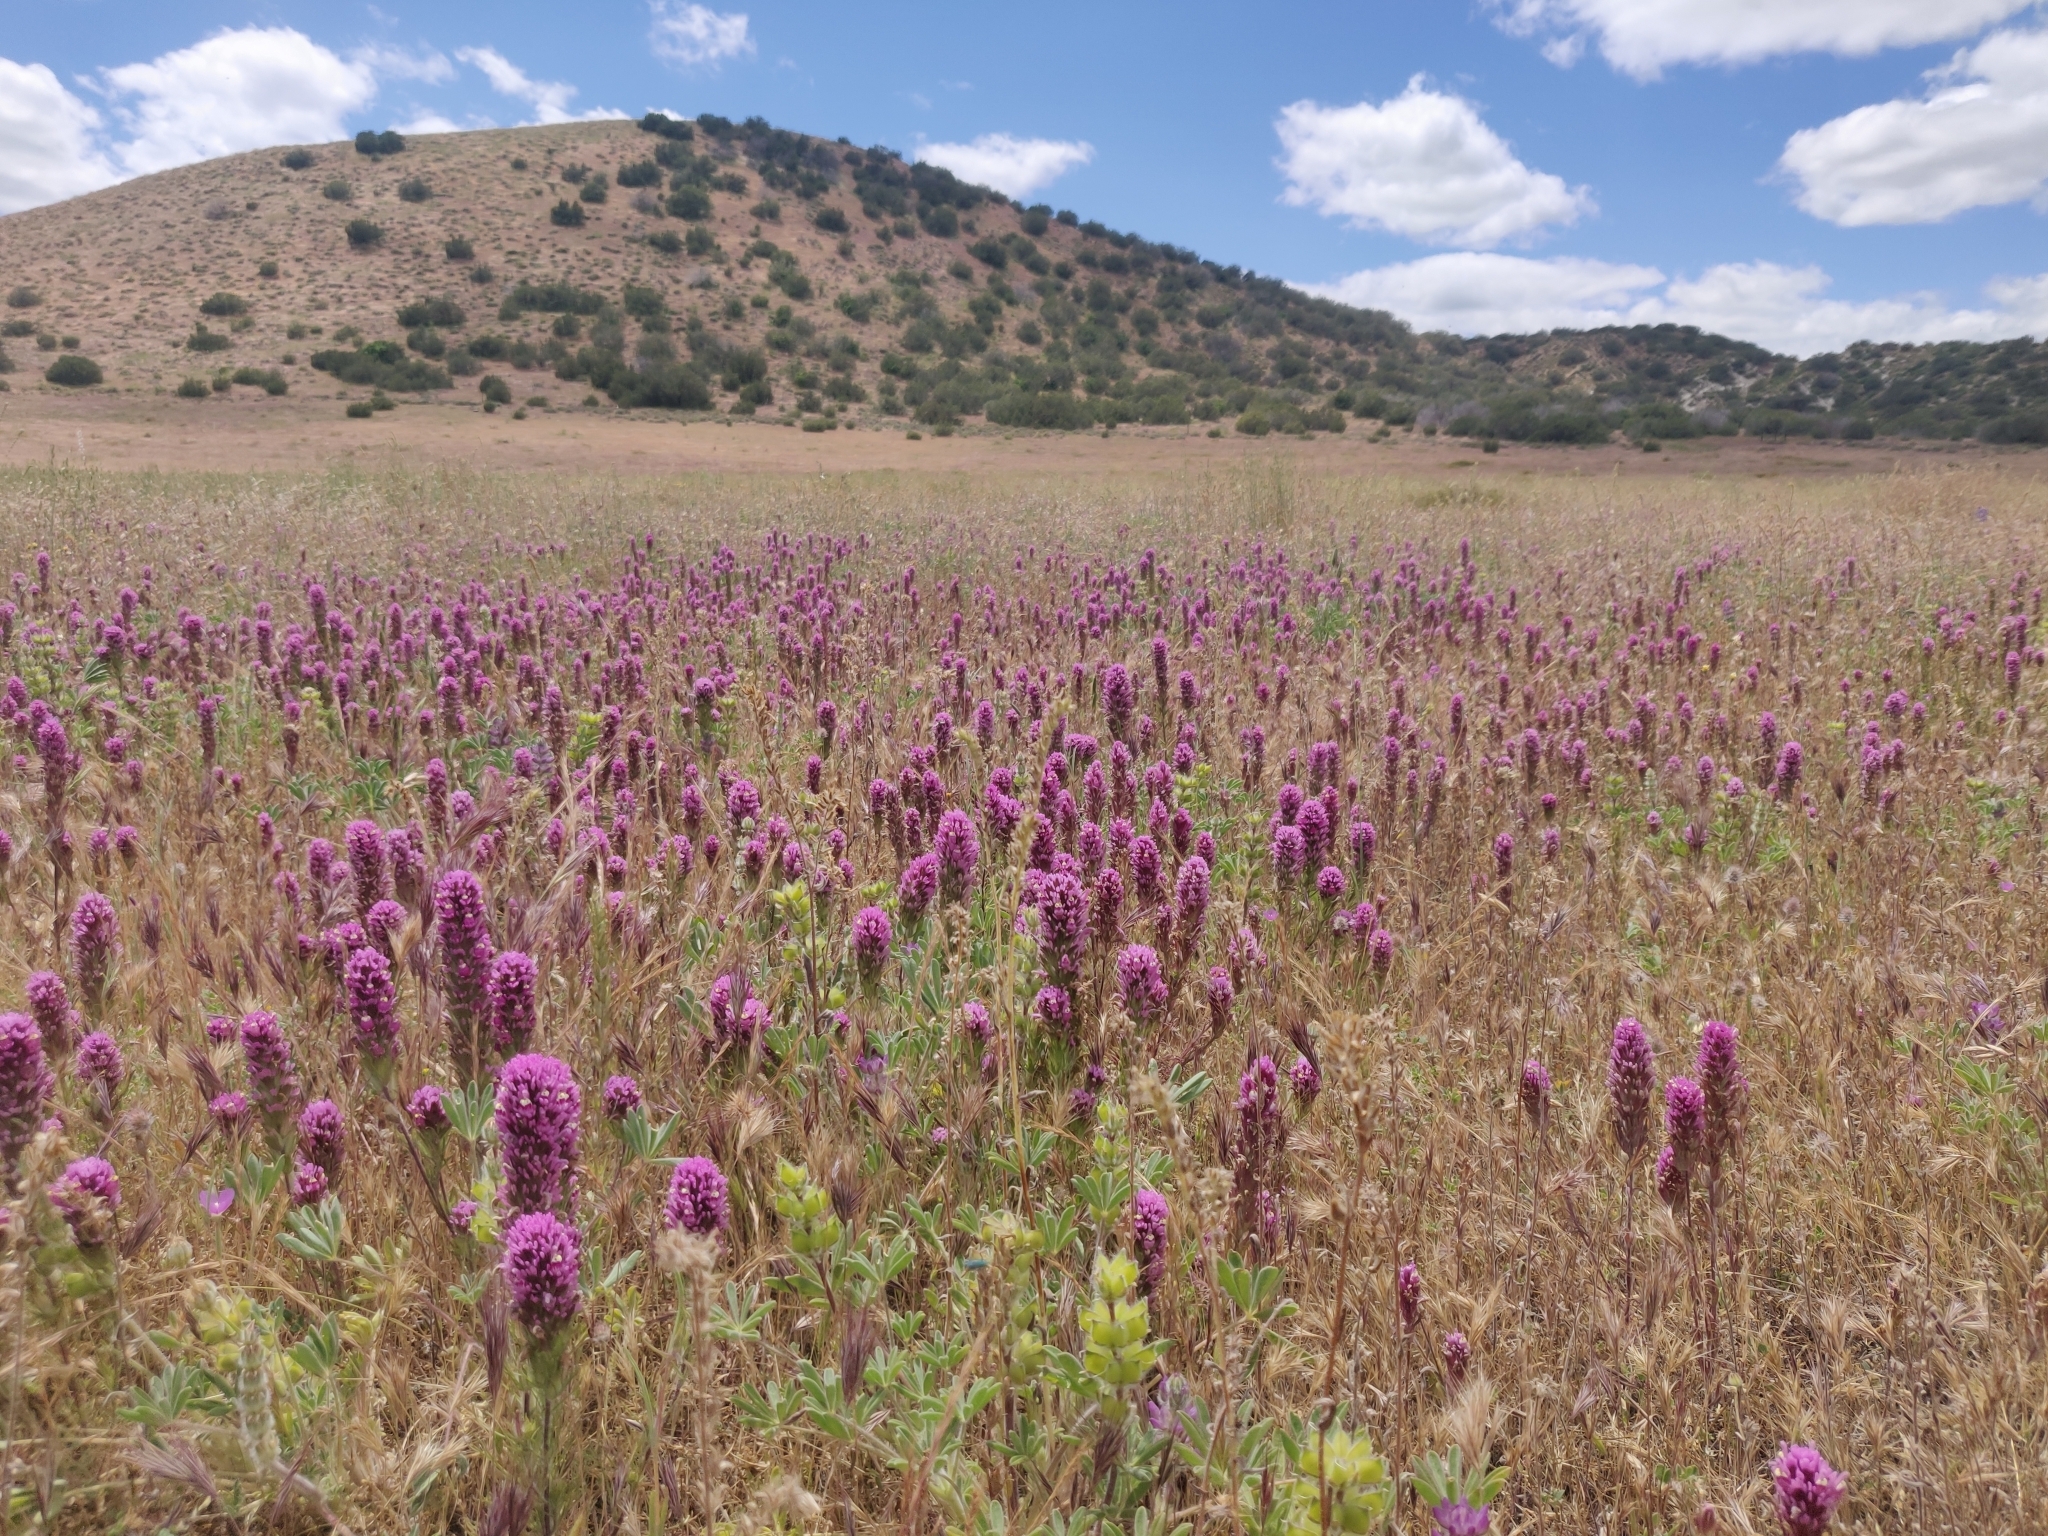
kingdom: Plantae
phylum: Tracheophyta
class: Magnoliopsida
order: Lamiales
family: Orobanchaceae
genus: Castilleja
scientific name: Castilleja exserta
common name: Purple owl-clover
